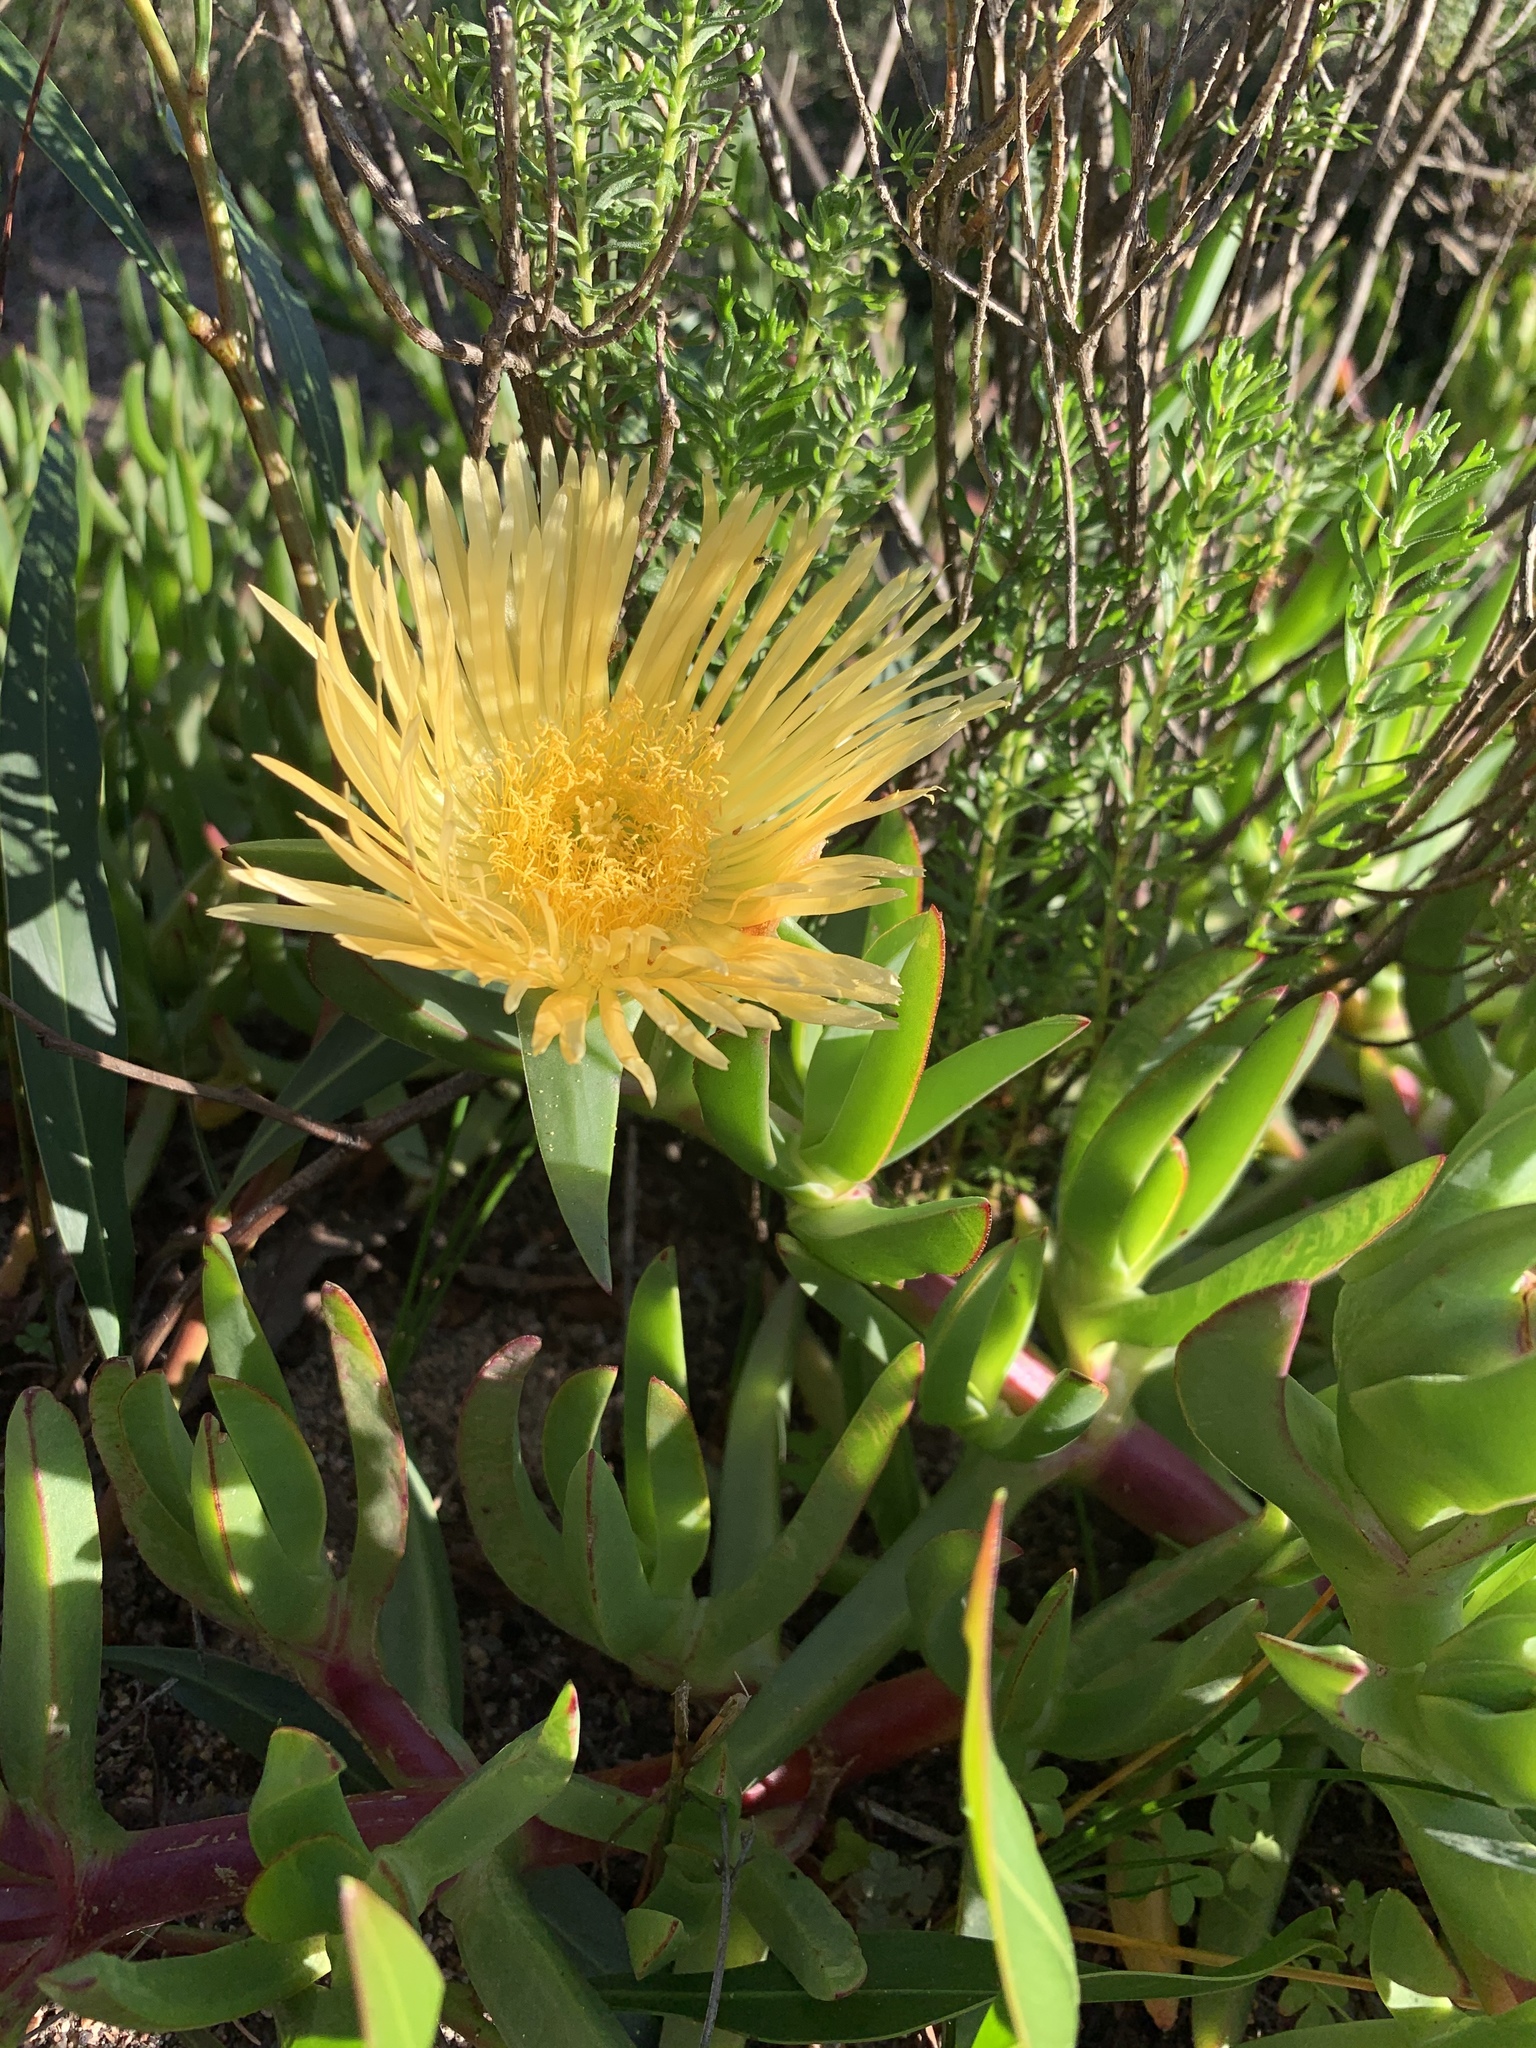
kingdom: Plantae
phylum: Tracheophyta
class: Magnoliopsida
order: Caryophyllales
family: Aizoaceae
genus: Carpobrotus
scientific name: Carpobrotus edulis
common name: Hottentot-fig
